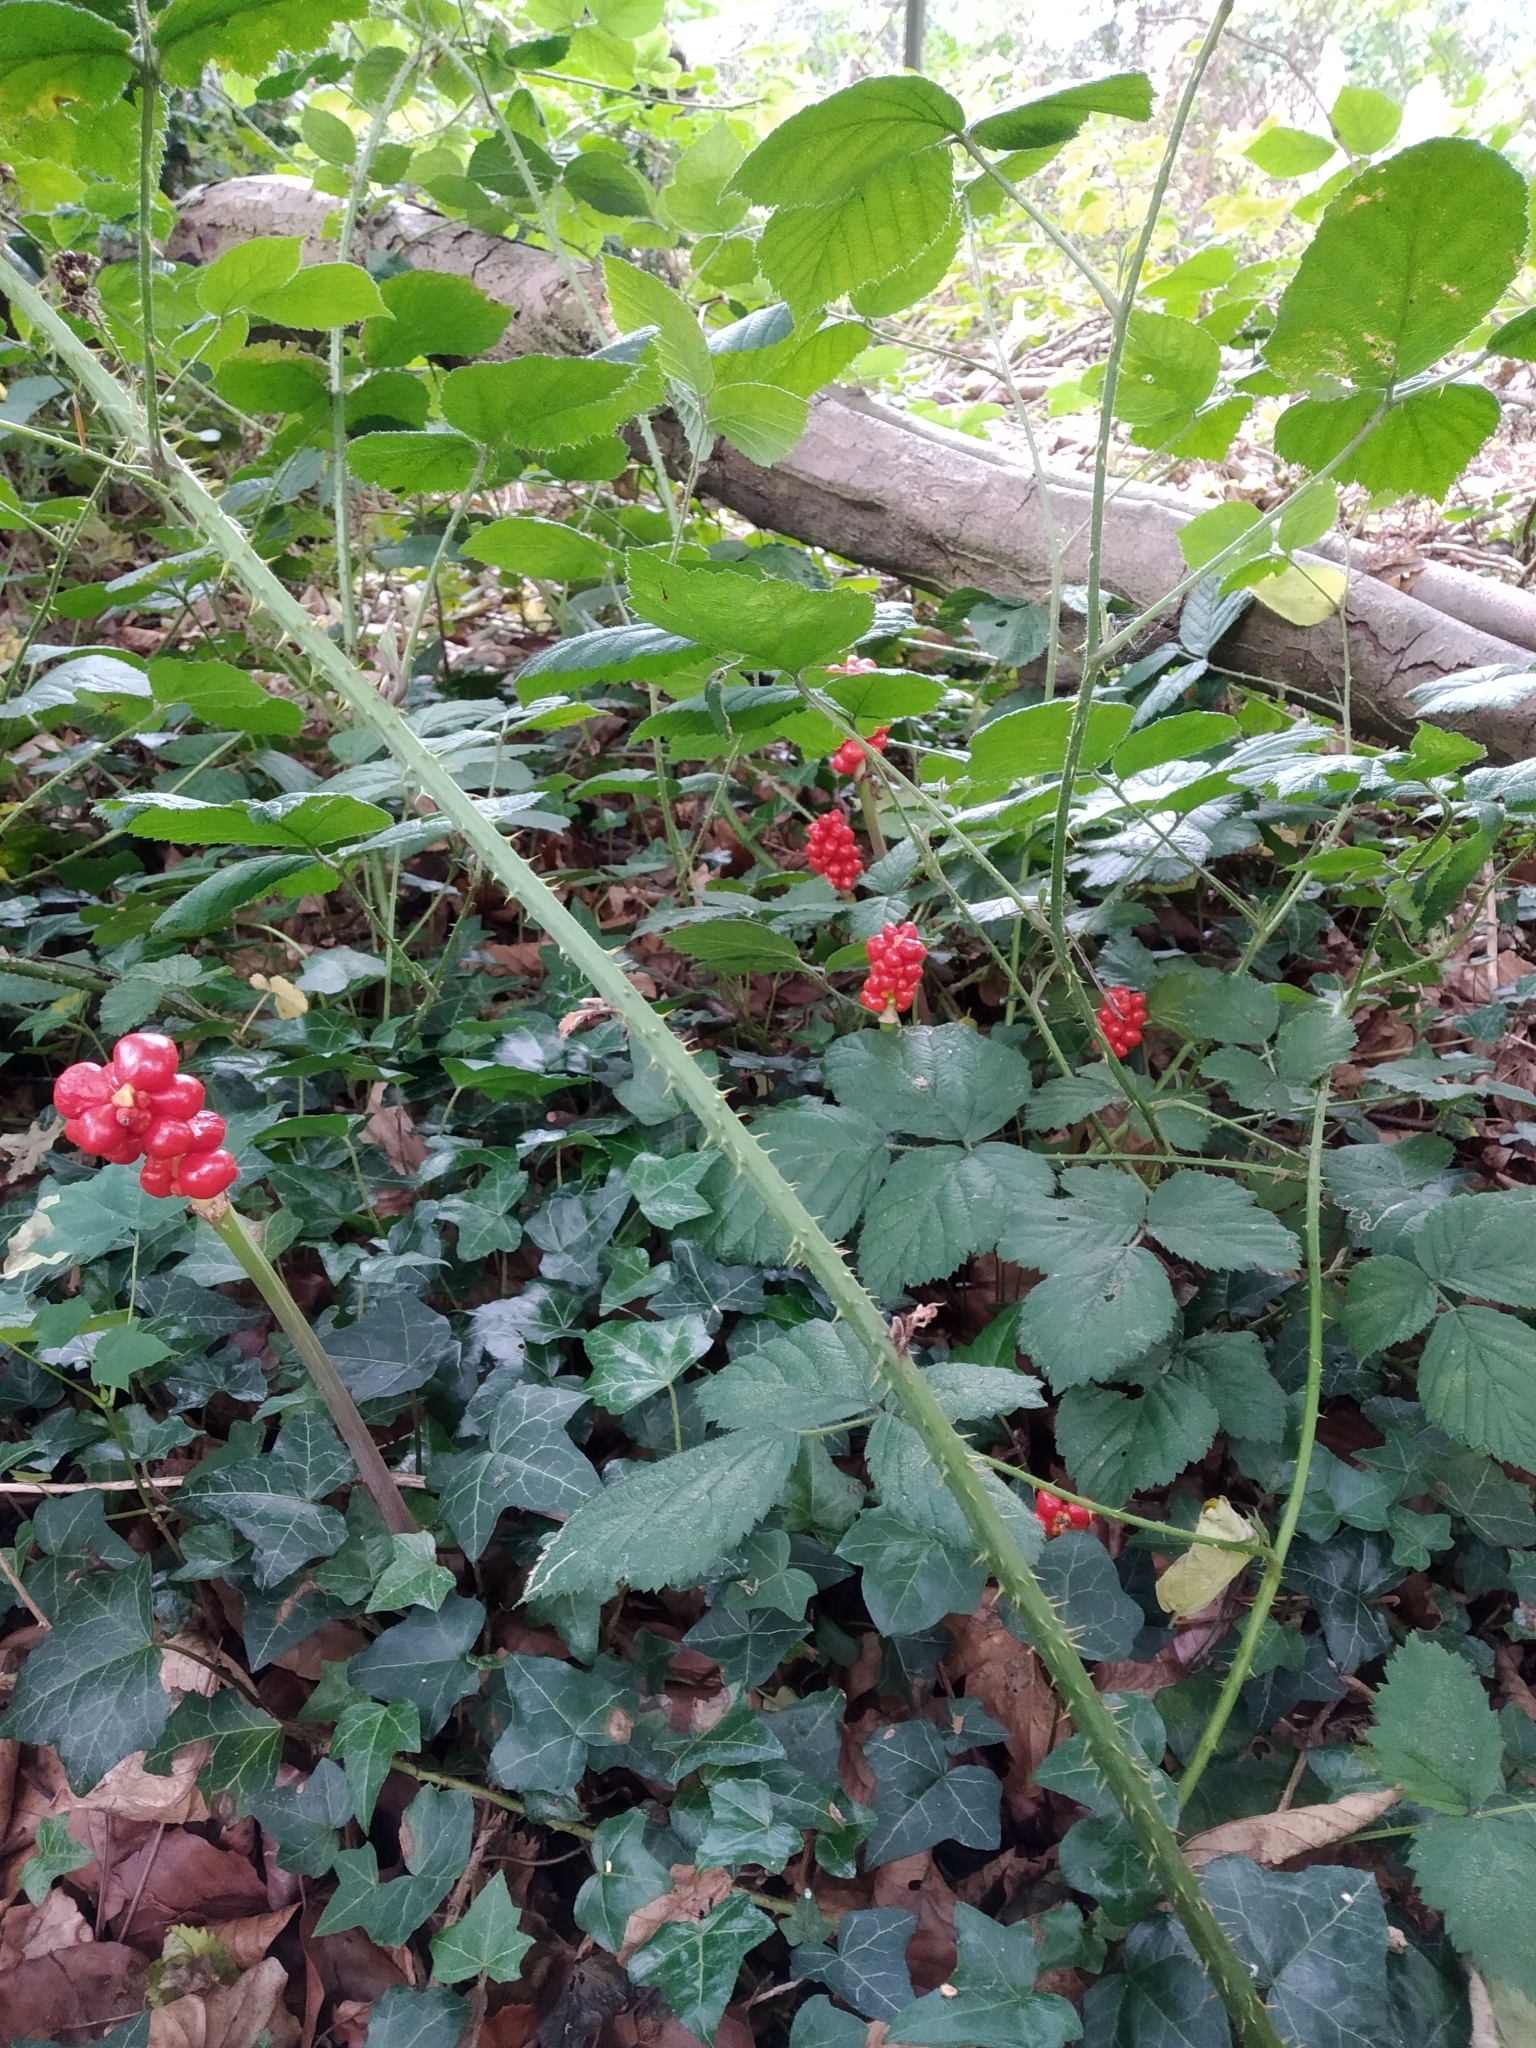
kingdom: Plantae
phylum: Tracheophyta
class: Liliopsida
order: Alismatales
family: Araceae
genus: Arum
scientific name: Arum maculatum
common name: Lords-and-ladies
